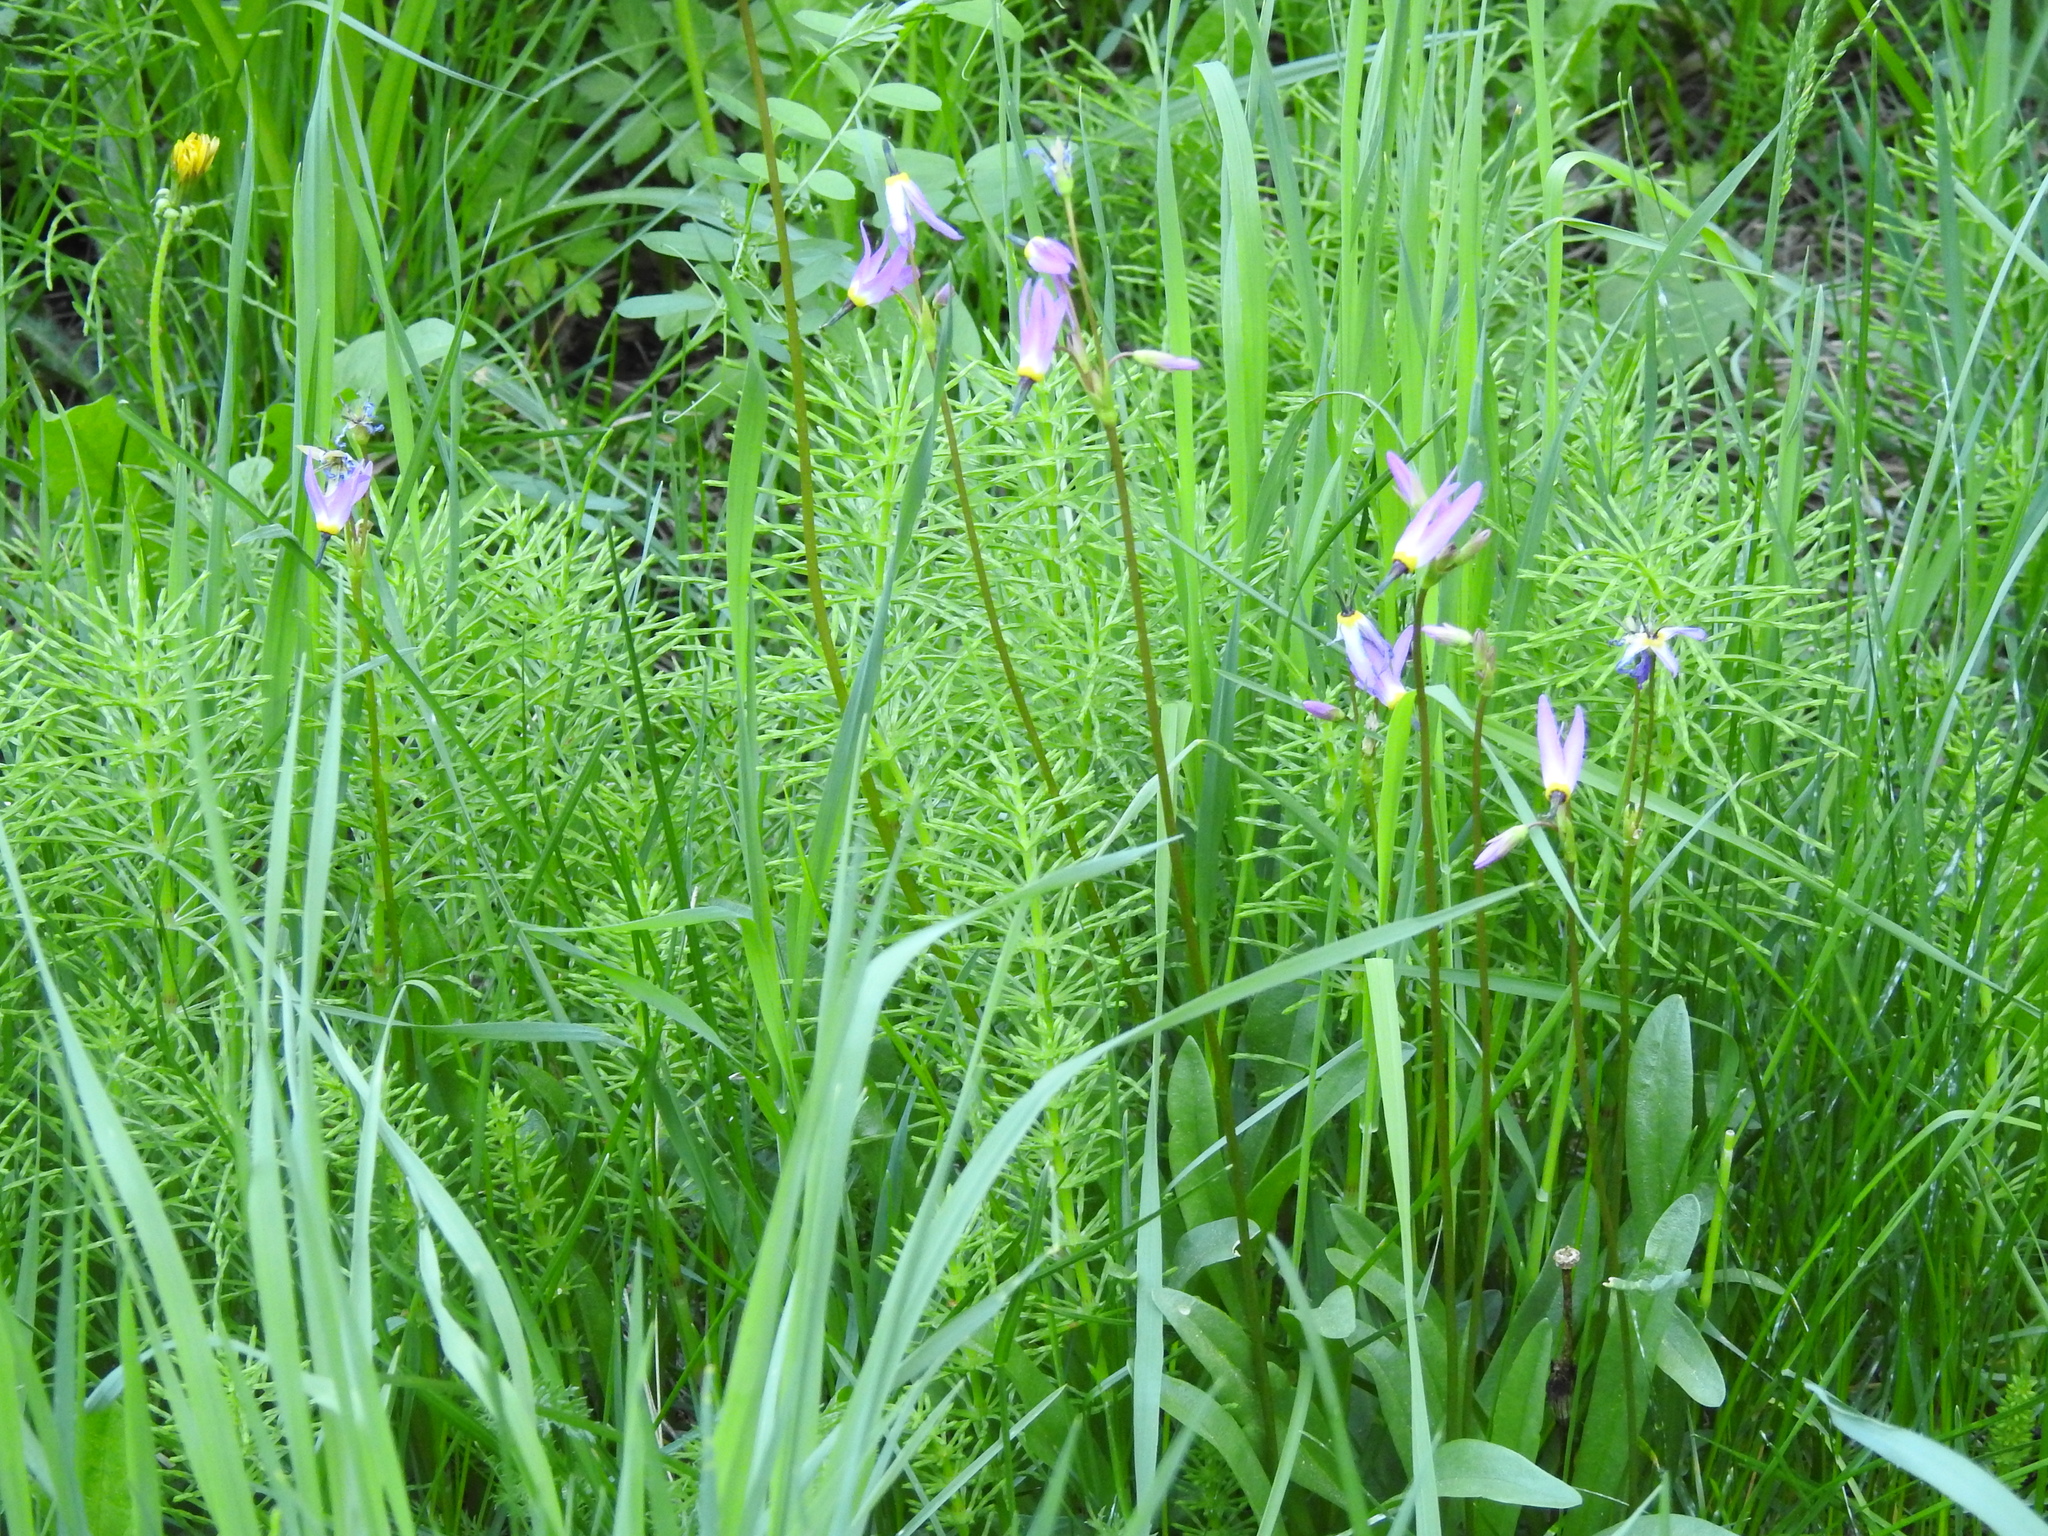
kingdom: Plantae
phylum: Tracheophyta
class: Magnoliopsida
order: Ericales
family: Primulaceae
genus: Dodecatheon
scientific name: Dodecatheon alpinum
